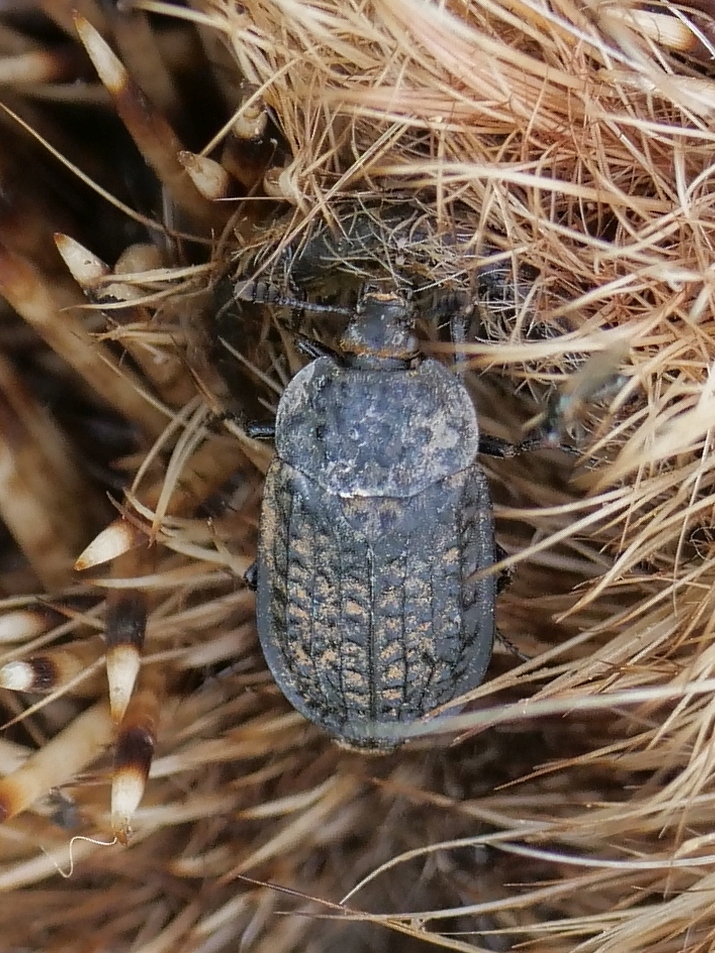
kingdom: Animalia
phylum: Arthropoda
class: Insecta
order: Coleoptera
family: Staphylinidae
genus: Thanatophilus
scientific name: Thanatophilus rugosus
